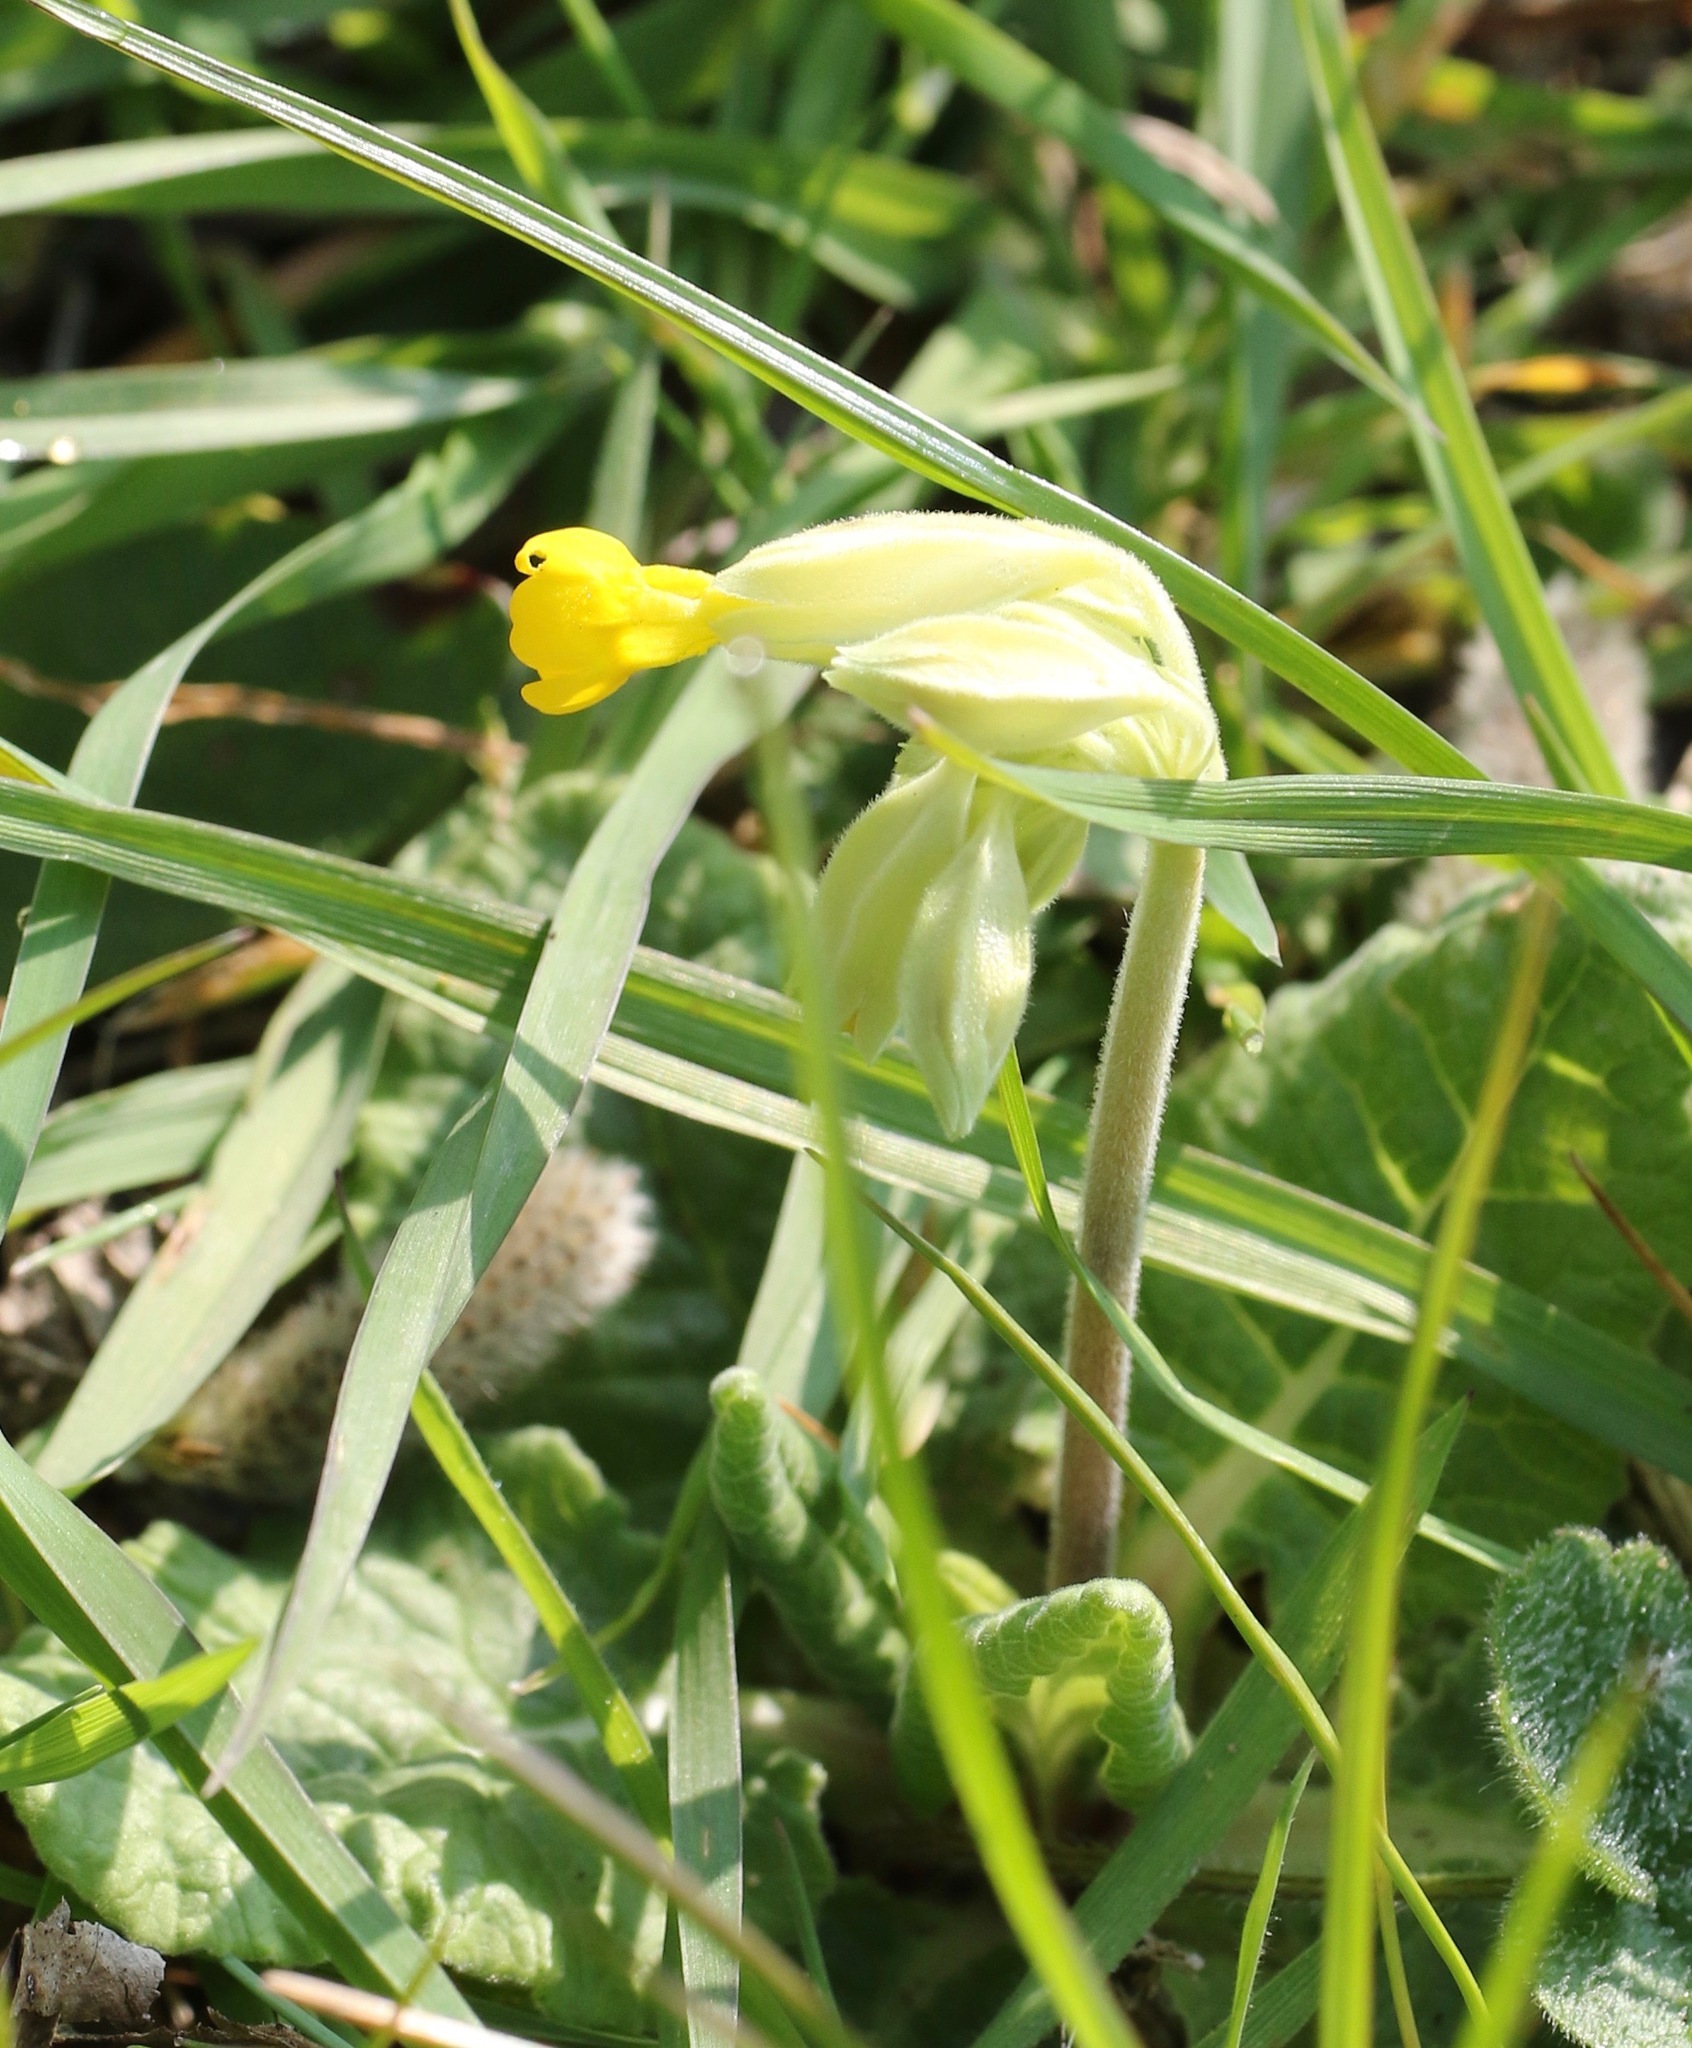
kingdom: Plantae
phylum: Tracheophyta
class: Magnoliopsida
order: Ericales
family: Primulaceae
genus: Primula
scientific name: Primula veris
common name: Cowslip
